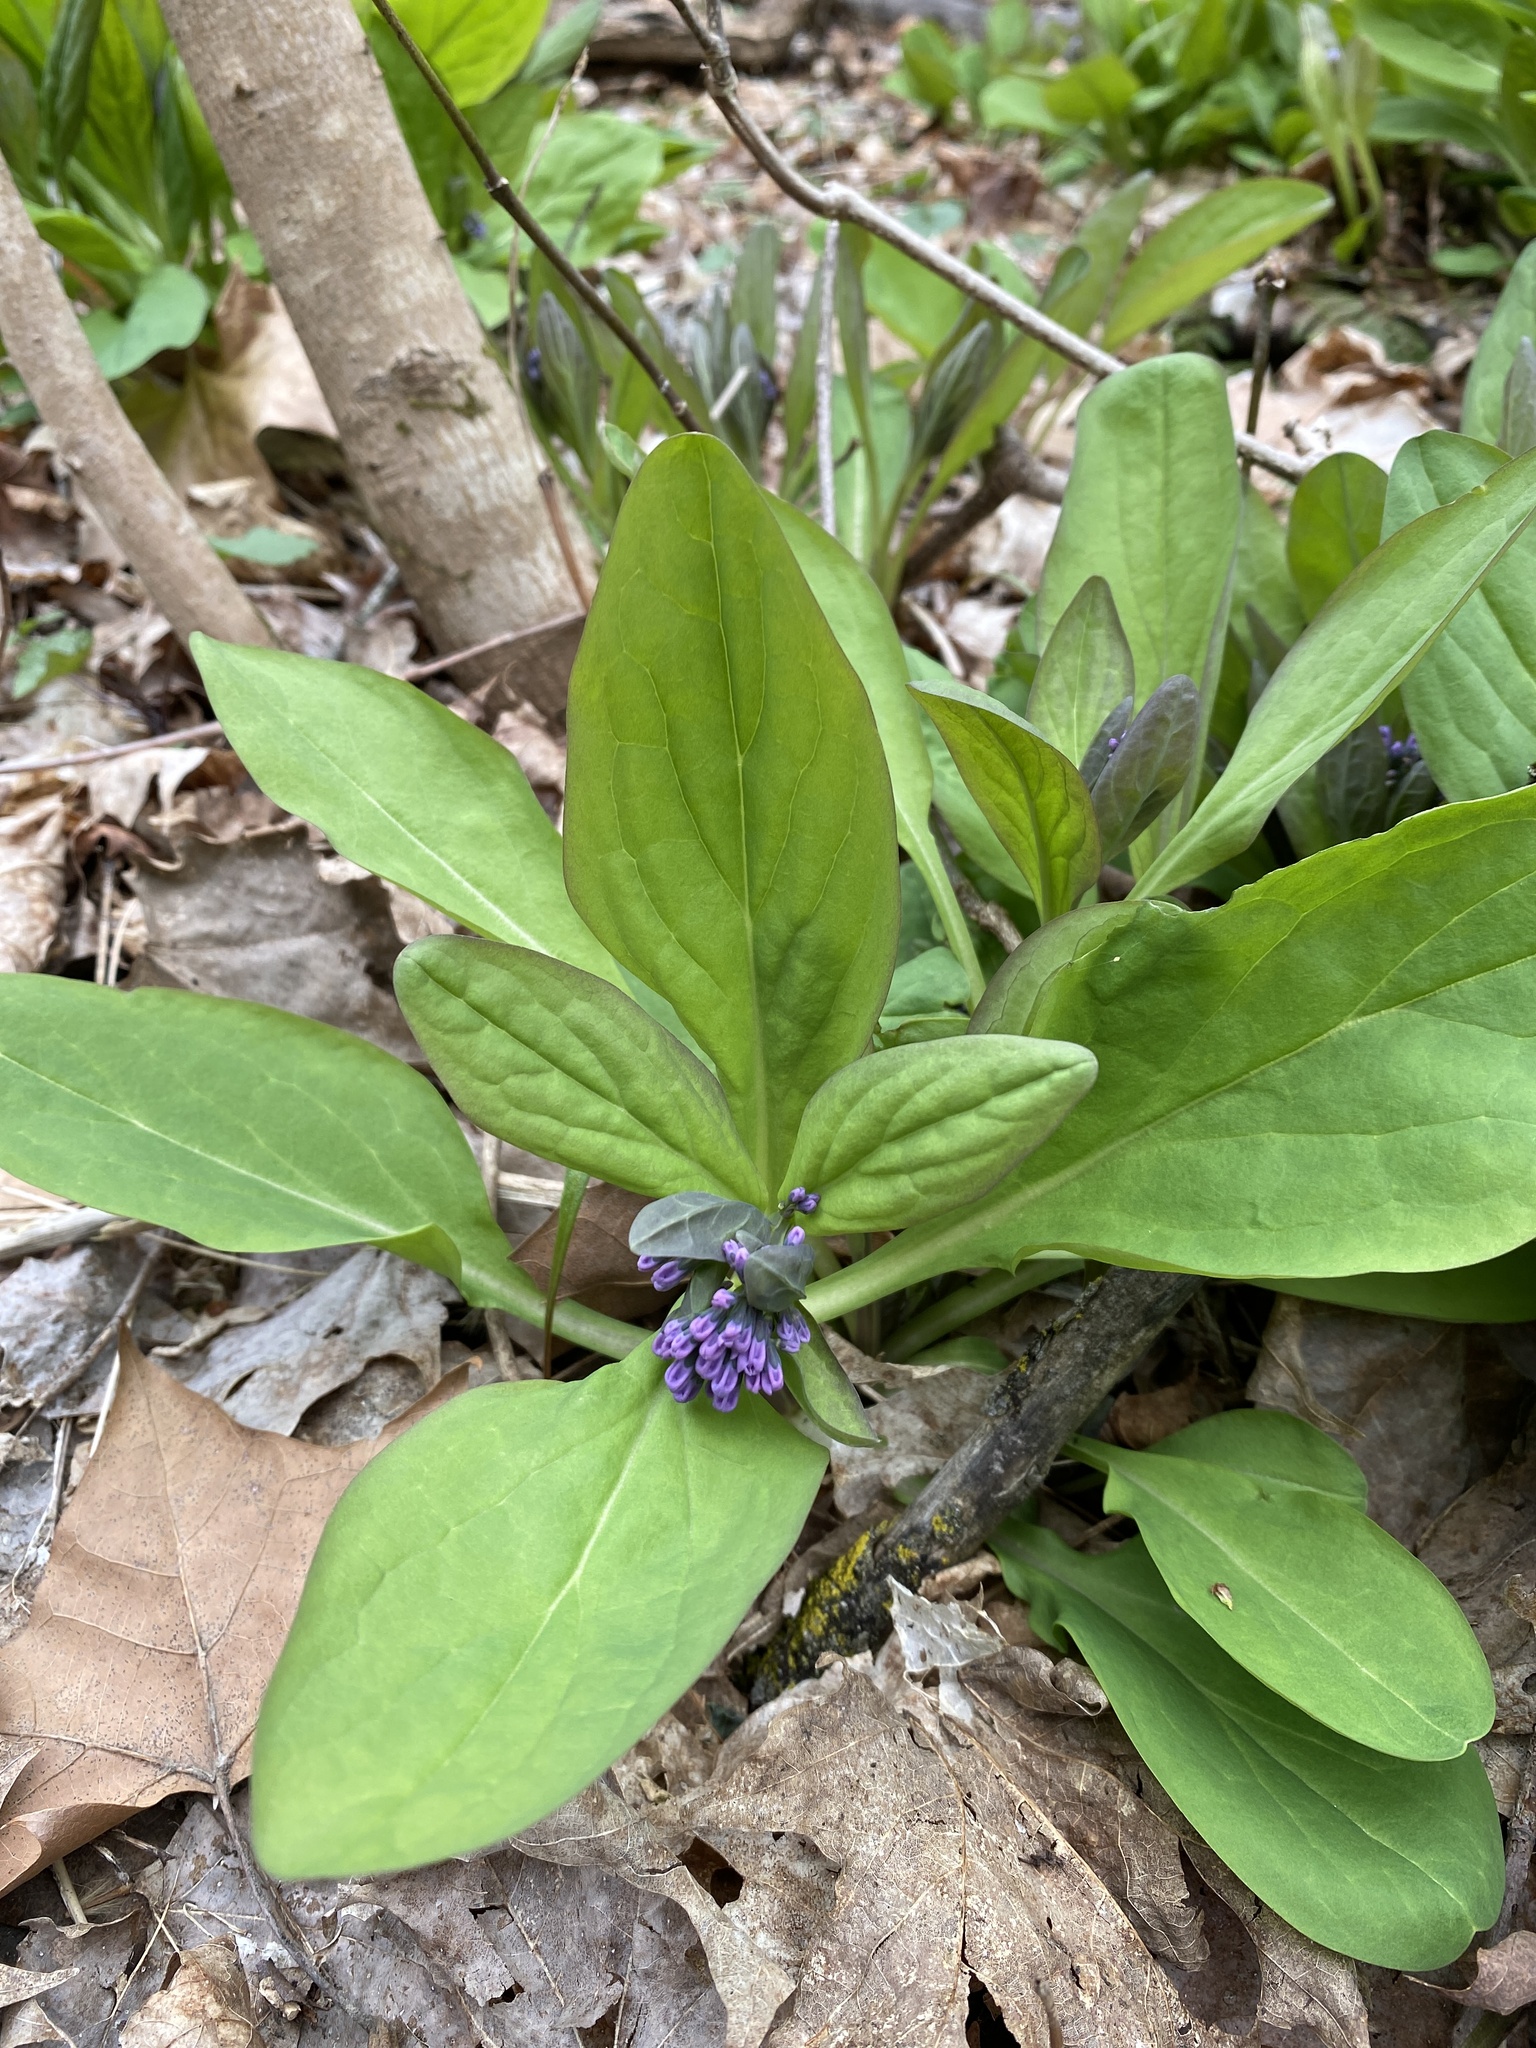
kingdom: Plantae
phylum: Tracheophyta
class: Magnoliopsida
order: Boraginales
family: Boraginaceae
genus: Mertensia
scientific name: Mertensia virginica
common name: Virginia bluebells
